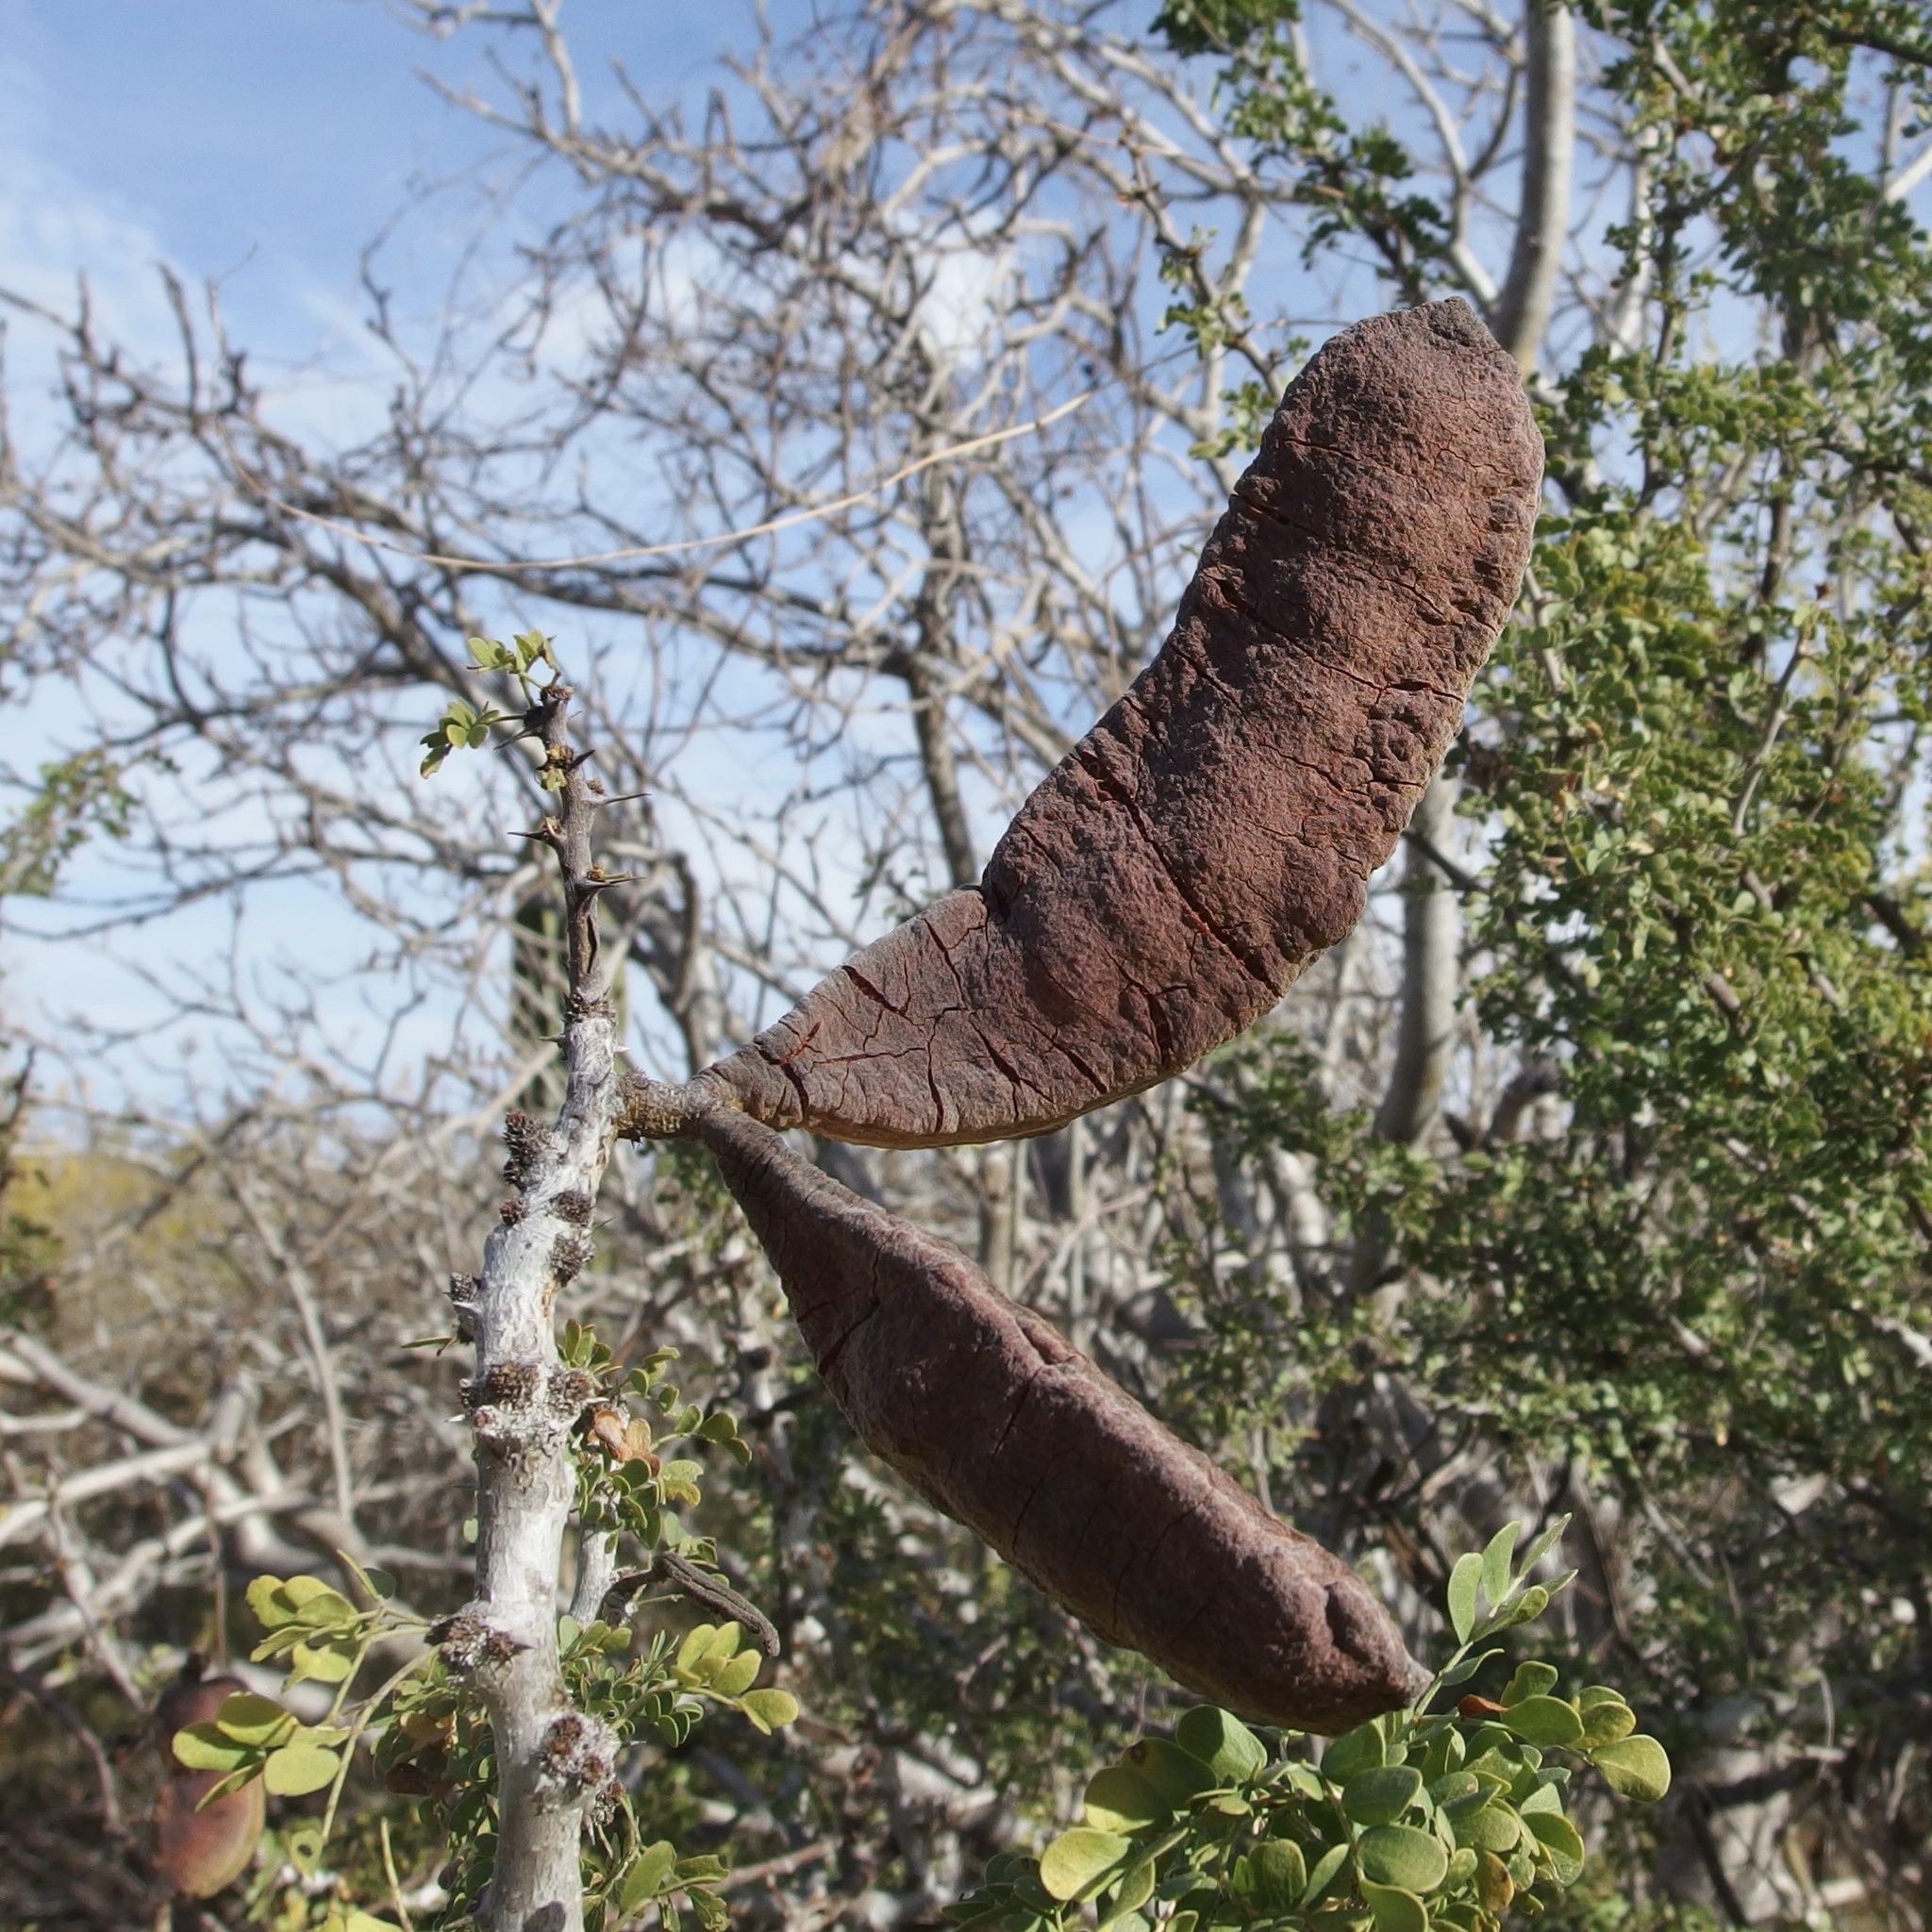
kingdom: Plantae
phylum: Tracheophyta
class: Magnoliopsida
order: Fabales
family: Fabaceae
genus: Ebenopsis
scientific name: Ebenopsis confinis
